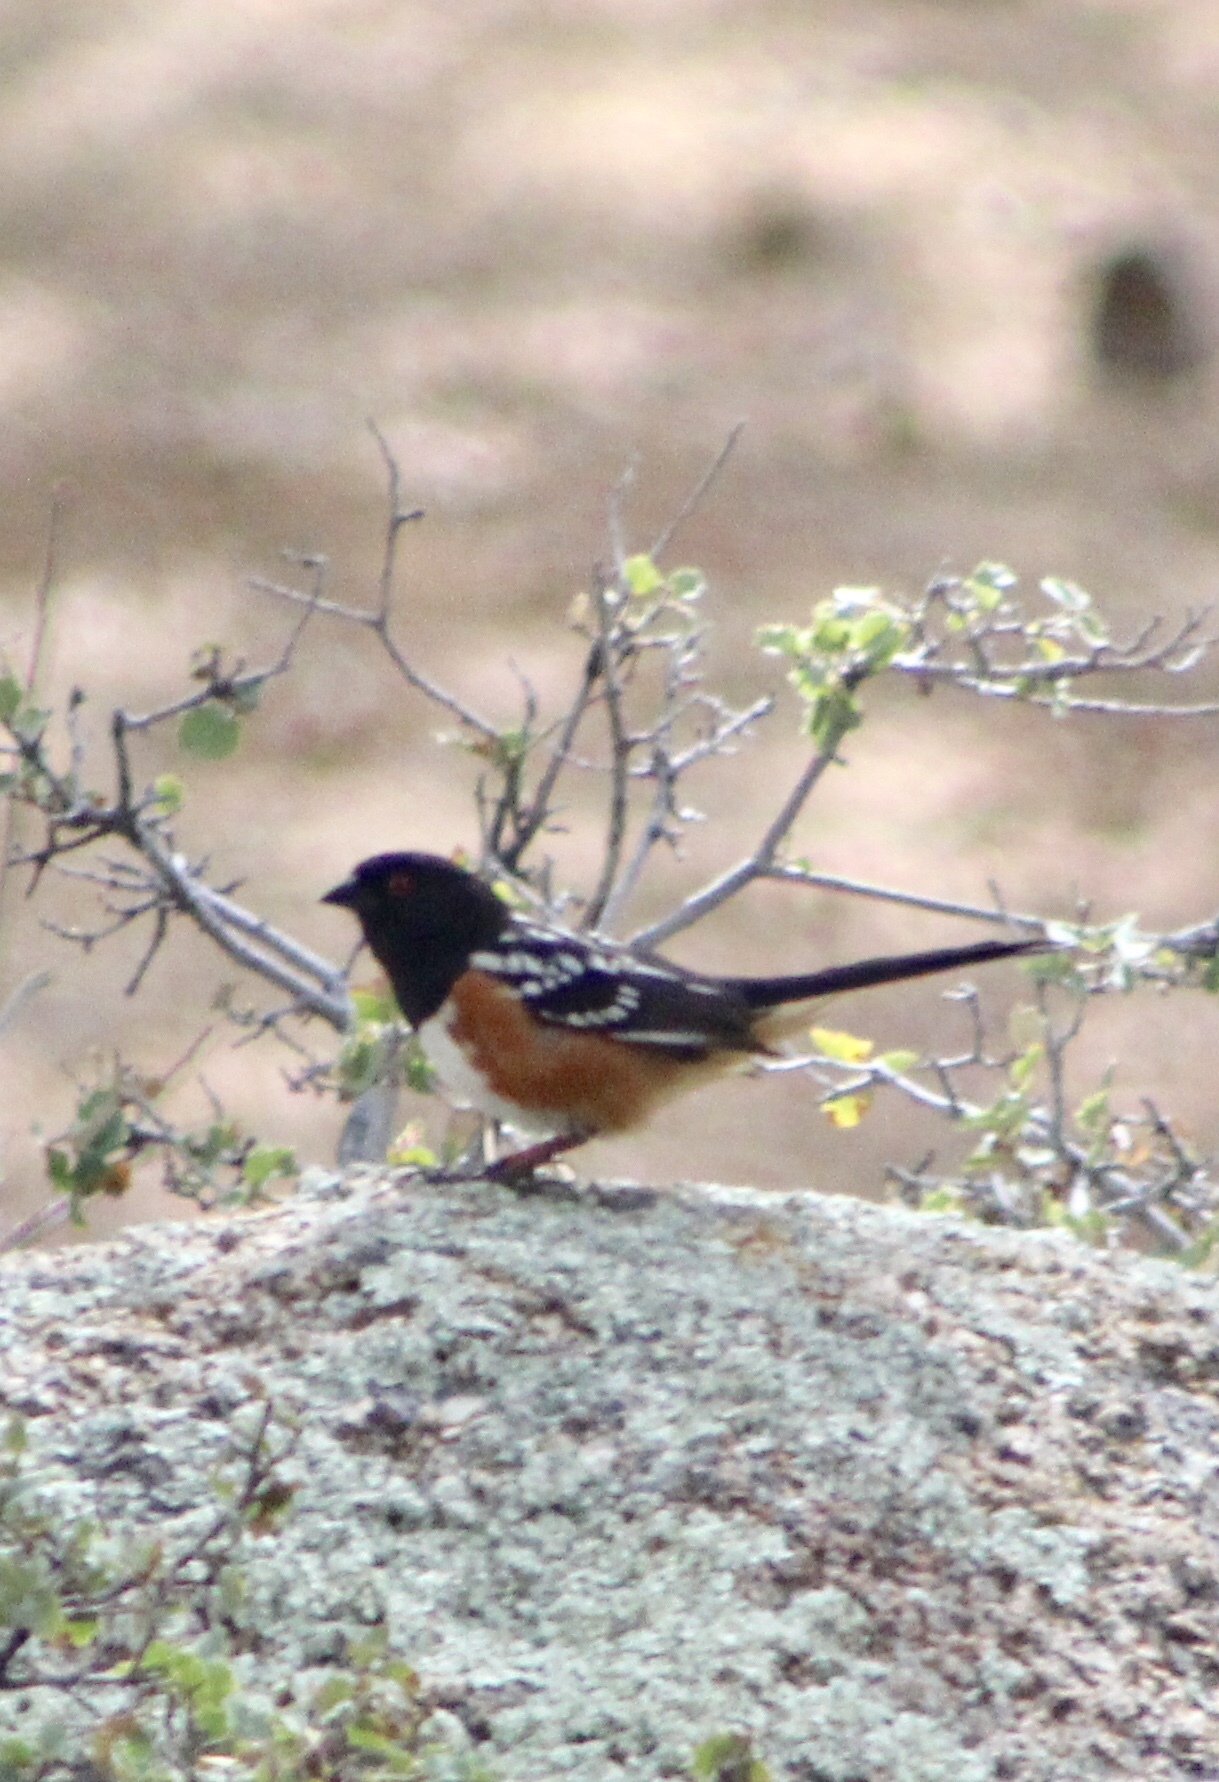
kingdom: Animalia
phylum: Chordata
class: Aves
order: Passeriformes
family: Passerellidae
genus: Pipilo
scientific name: Pipilo maculatus
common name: Spotted towhee
